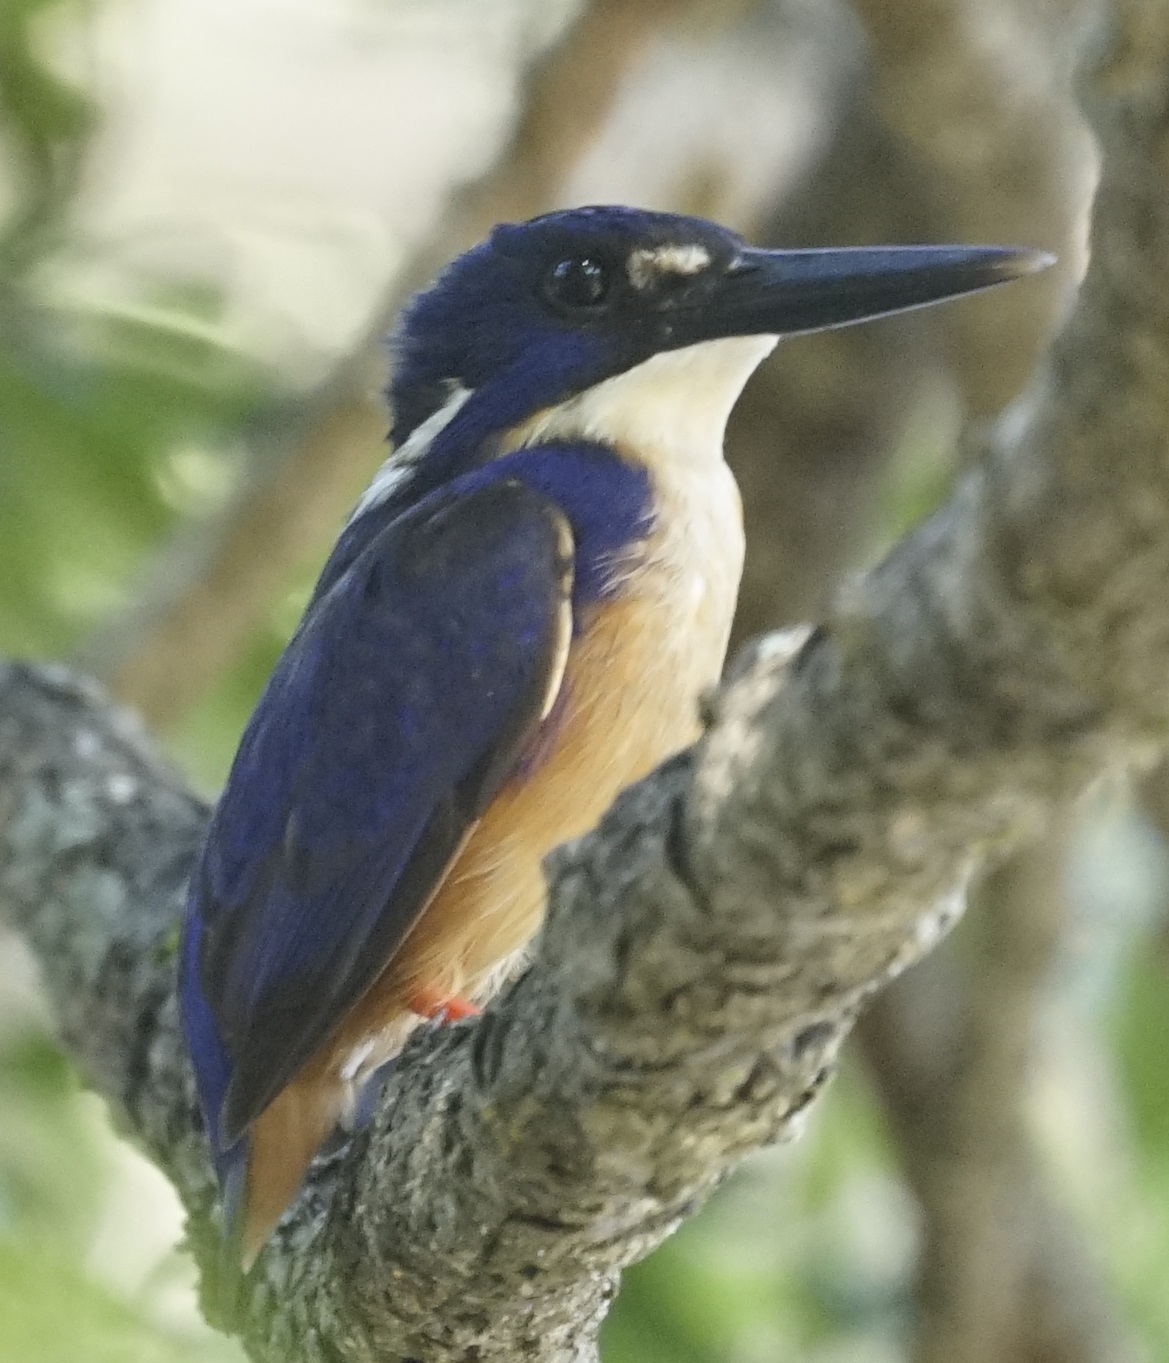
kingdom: Animalia
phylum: Chordata
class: Aves
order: Coraciiformes
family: Alcedinidae
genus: Ceyx
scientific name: Ceyx azureus
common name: Azure kingfisher
